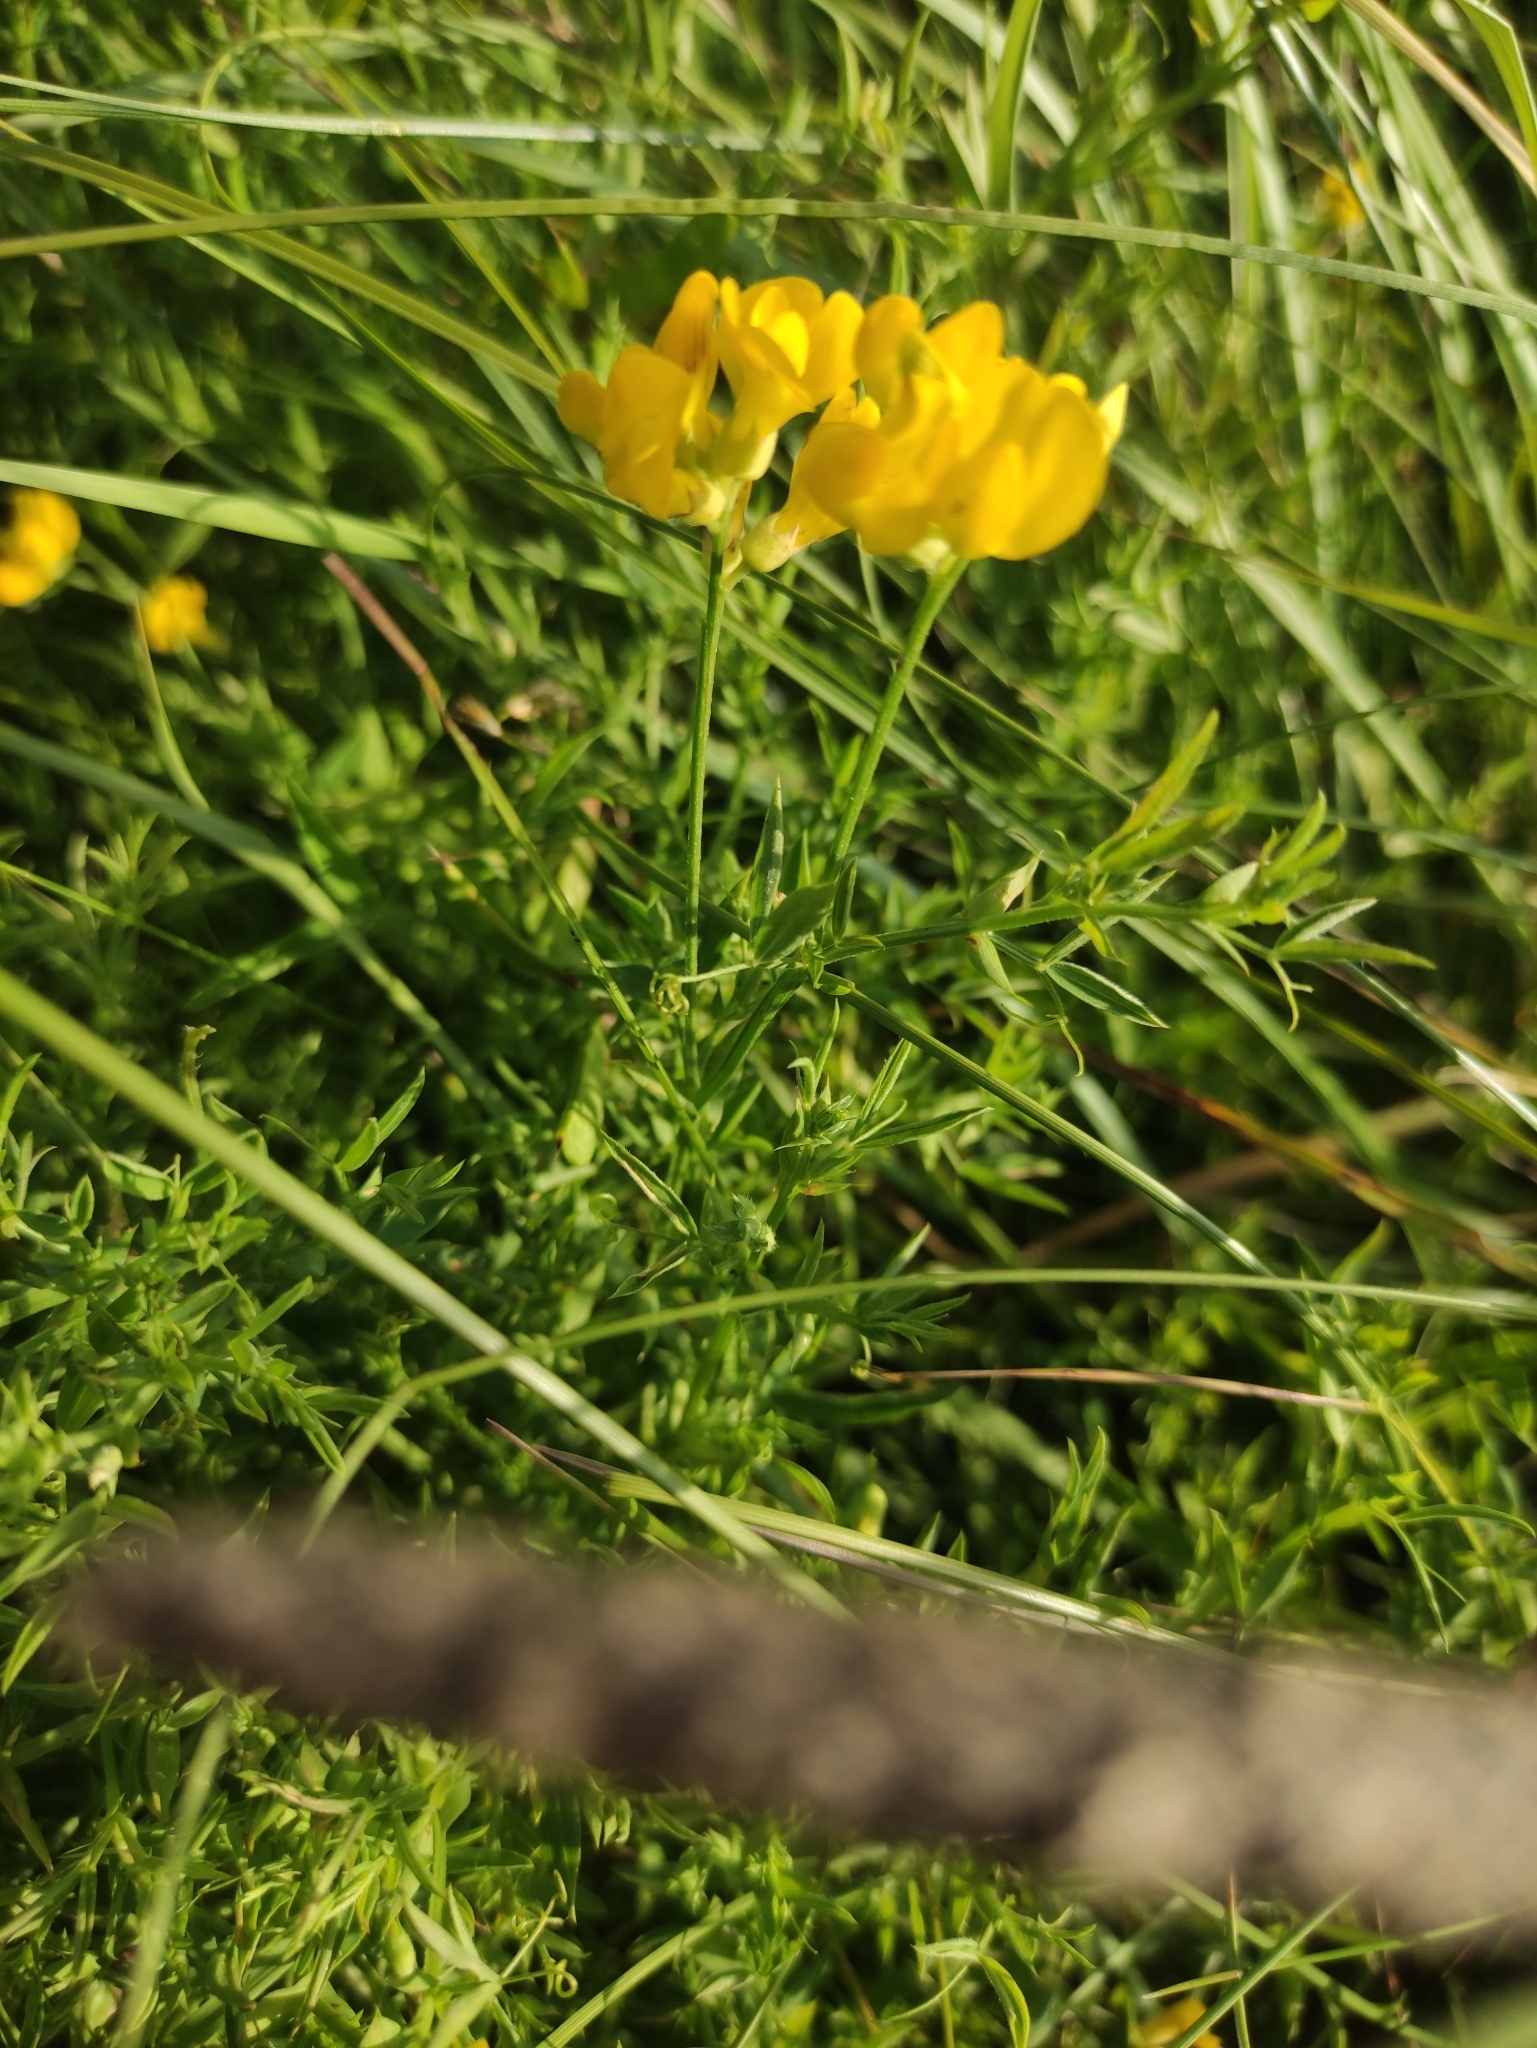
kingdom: Plantae
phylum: Tracheophyta
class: Magnoliopsida
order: Fabales
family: Fabaceae
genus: Lathyrus
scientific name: Lathyrus pratensis
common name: Meadow vetchling
